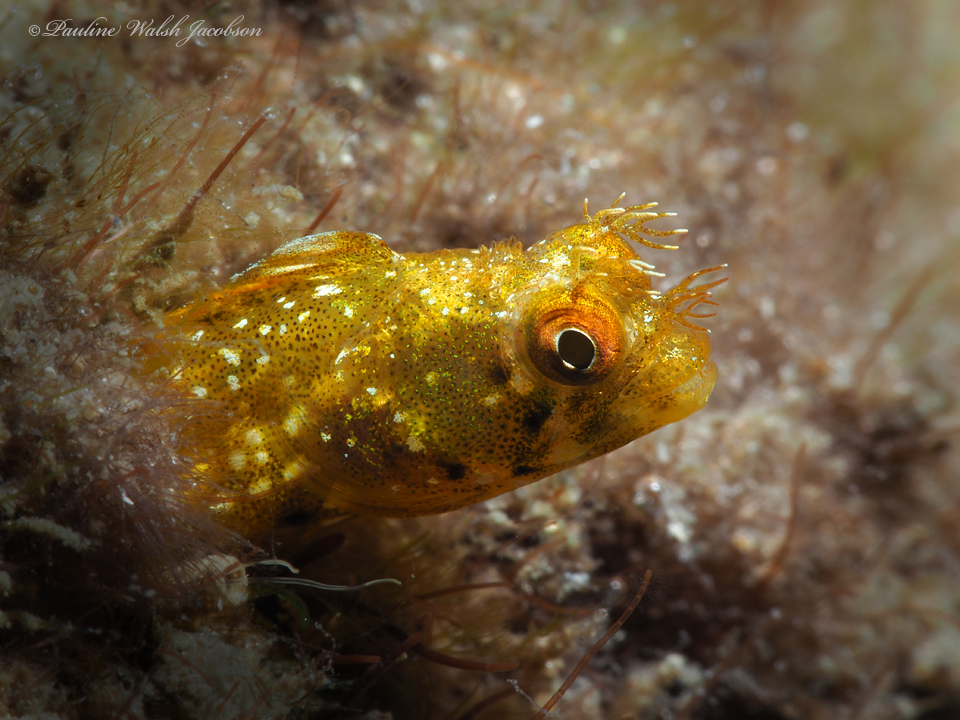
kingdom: Animalia
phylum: Chordata
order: Perciformes
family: Chaenopsidae
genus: Acanthemblemaria
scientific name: Acanthemblemaria aspera
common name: Roughhead blenny
